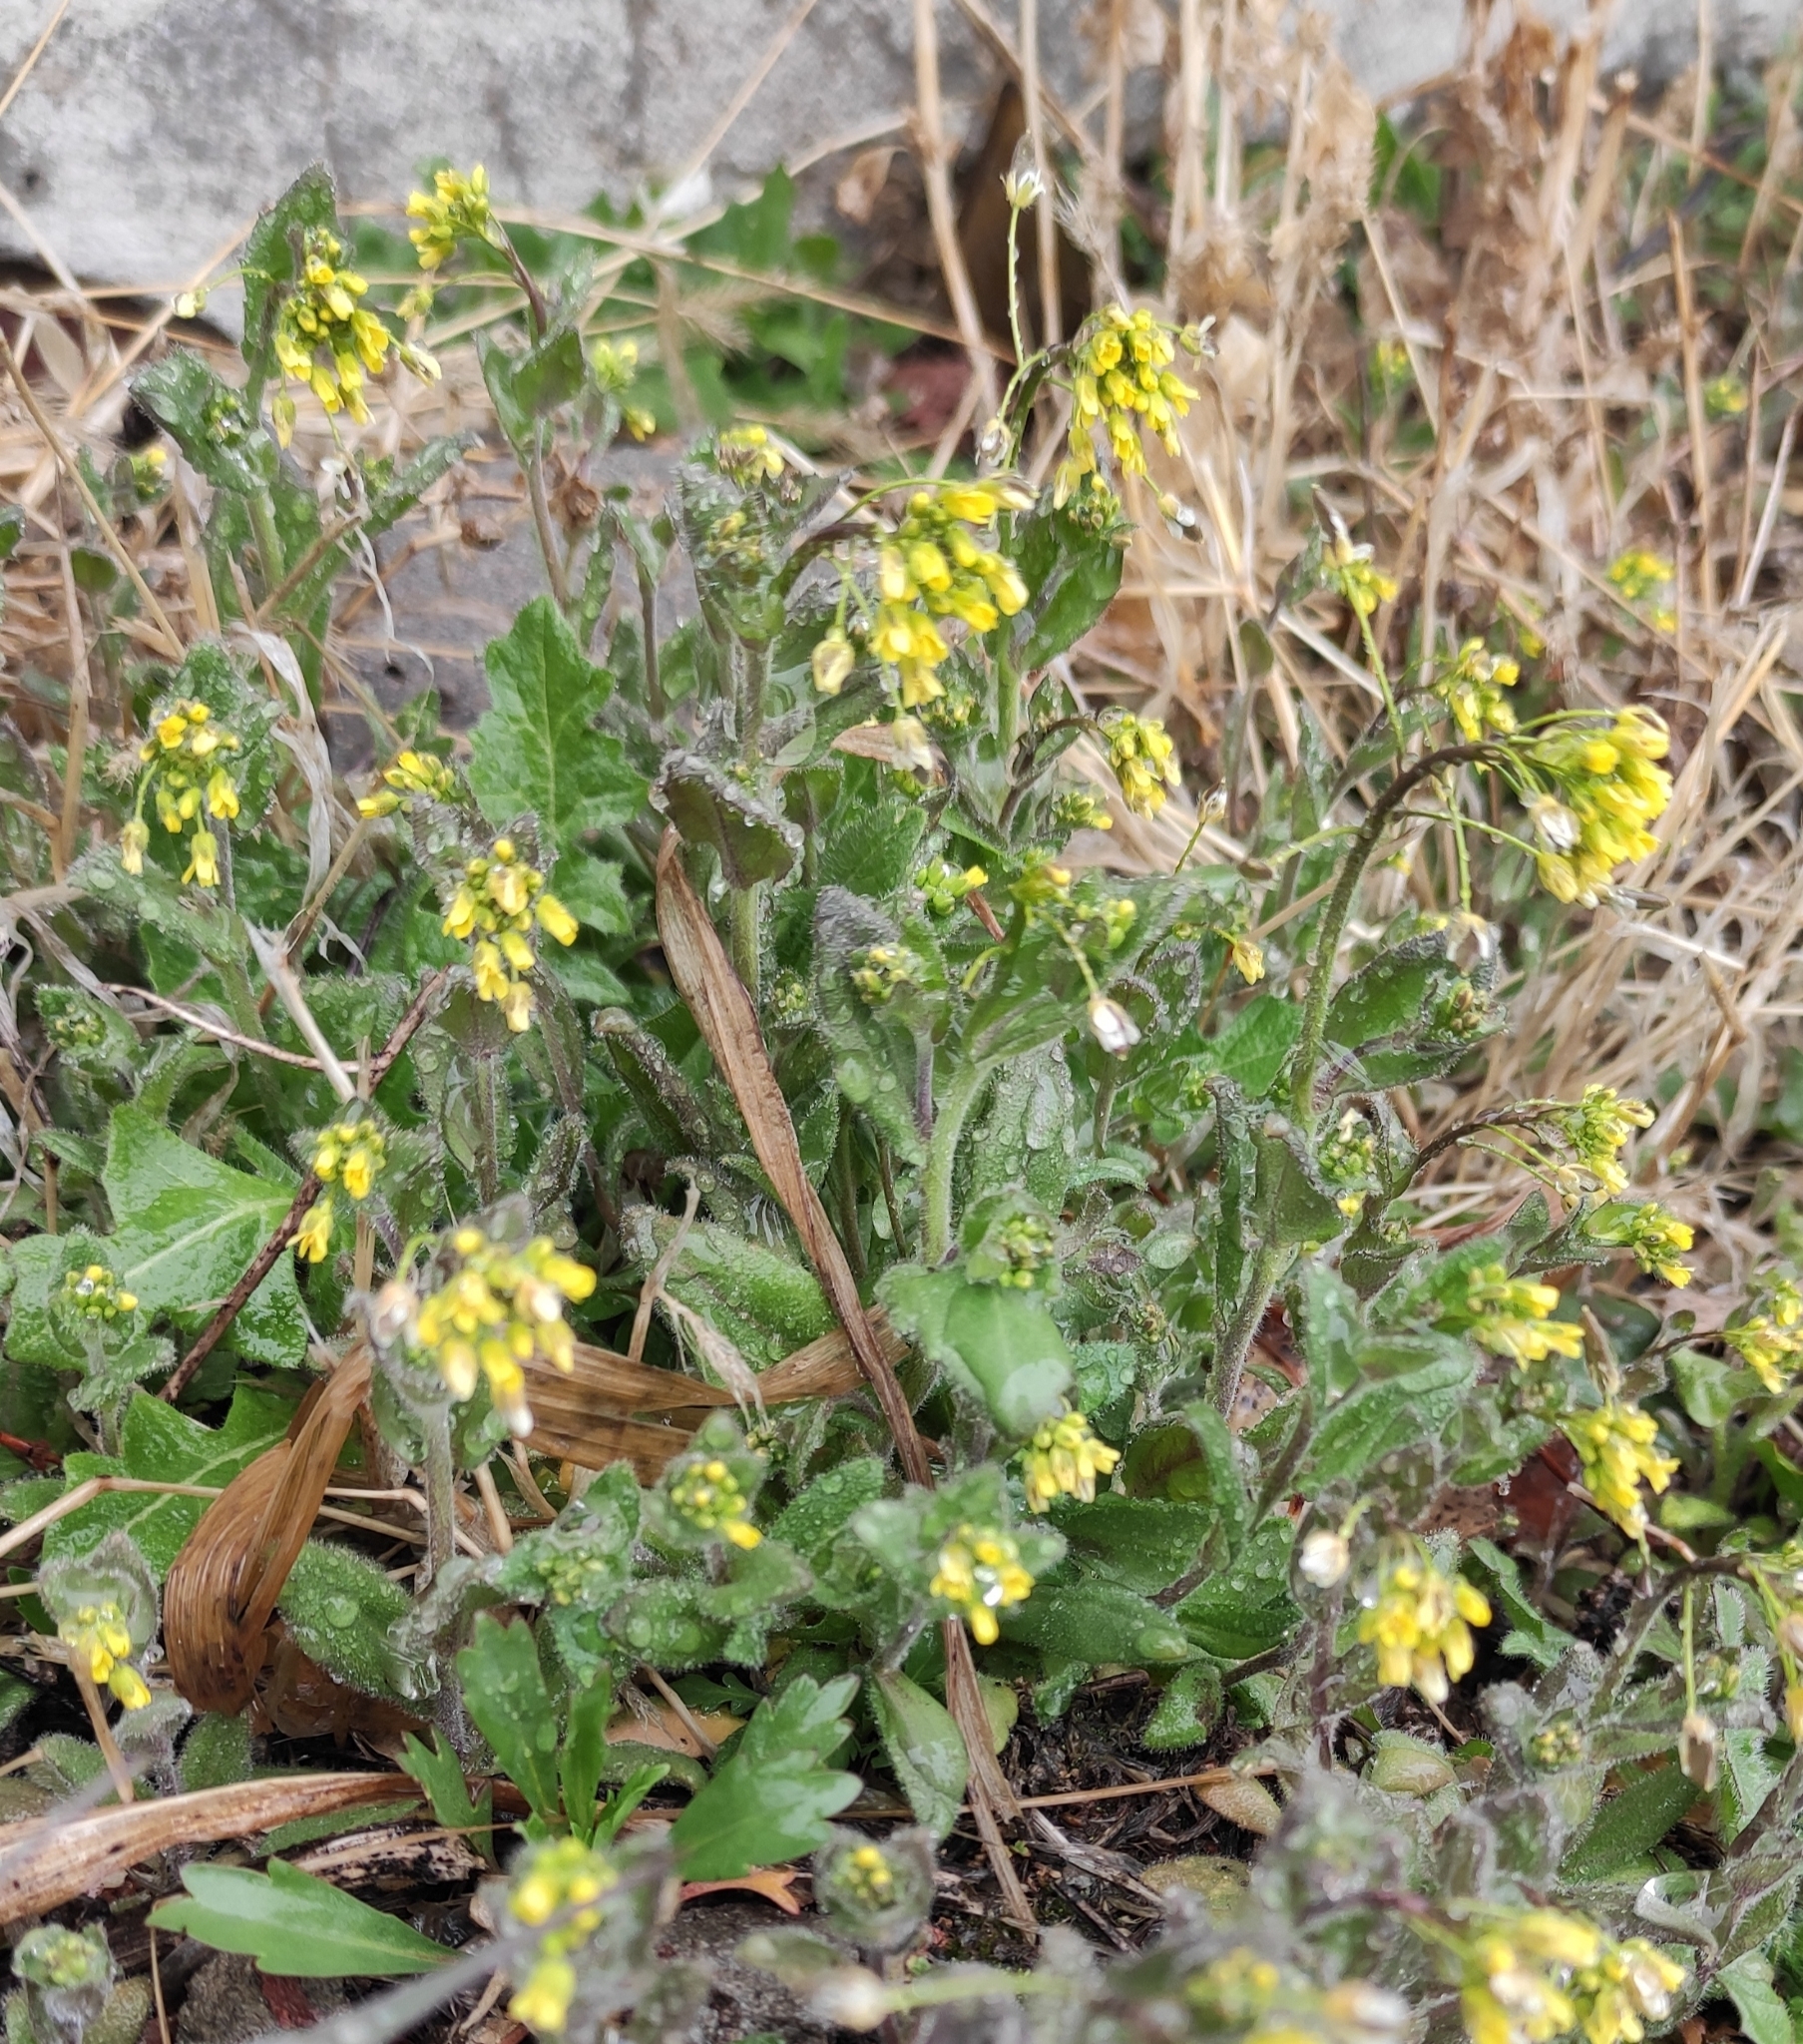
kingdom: Plantae
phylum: Tracheophyta
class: Magnoliopsida
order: Brassicales
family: Brassicaceae
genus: Draba
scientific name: Draba nemorosa
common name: Wood whitlow-grass
